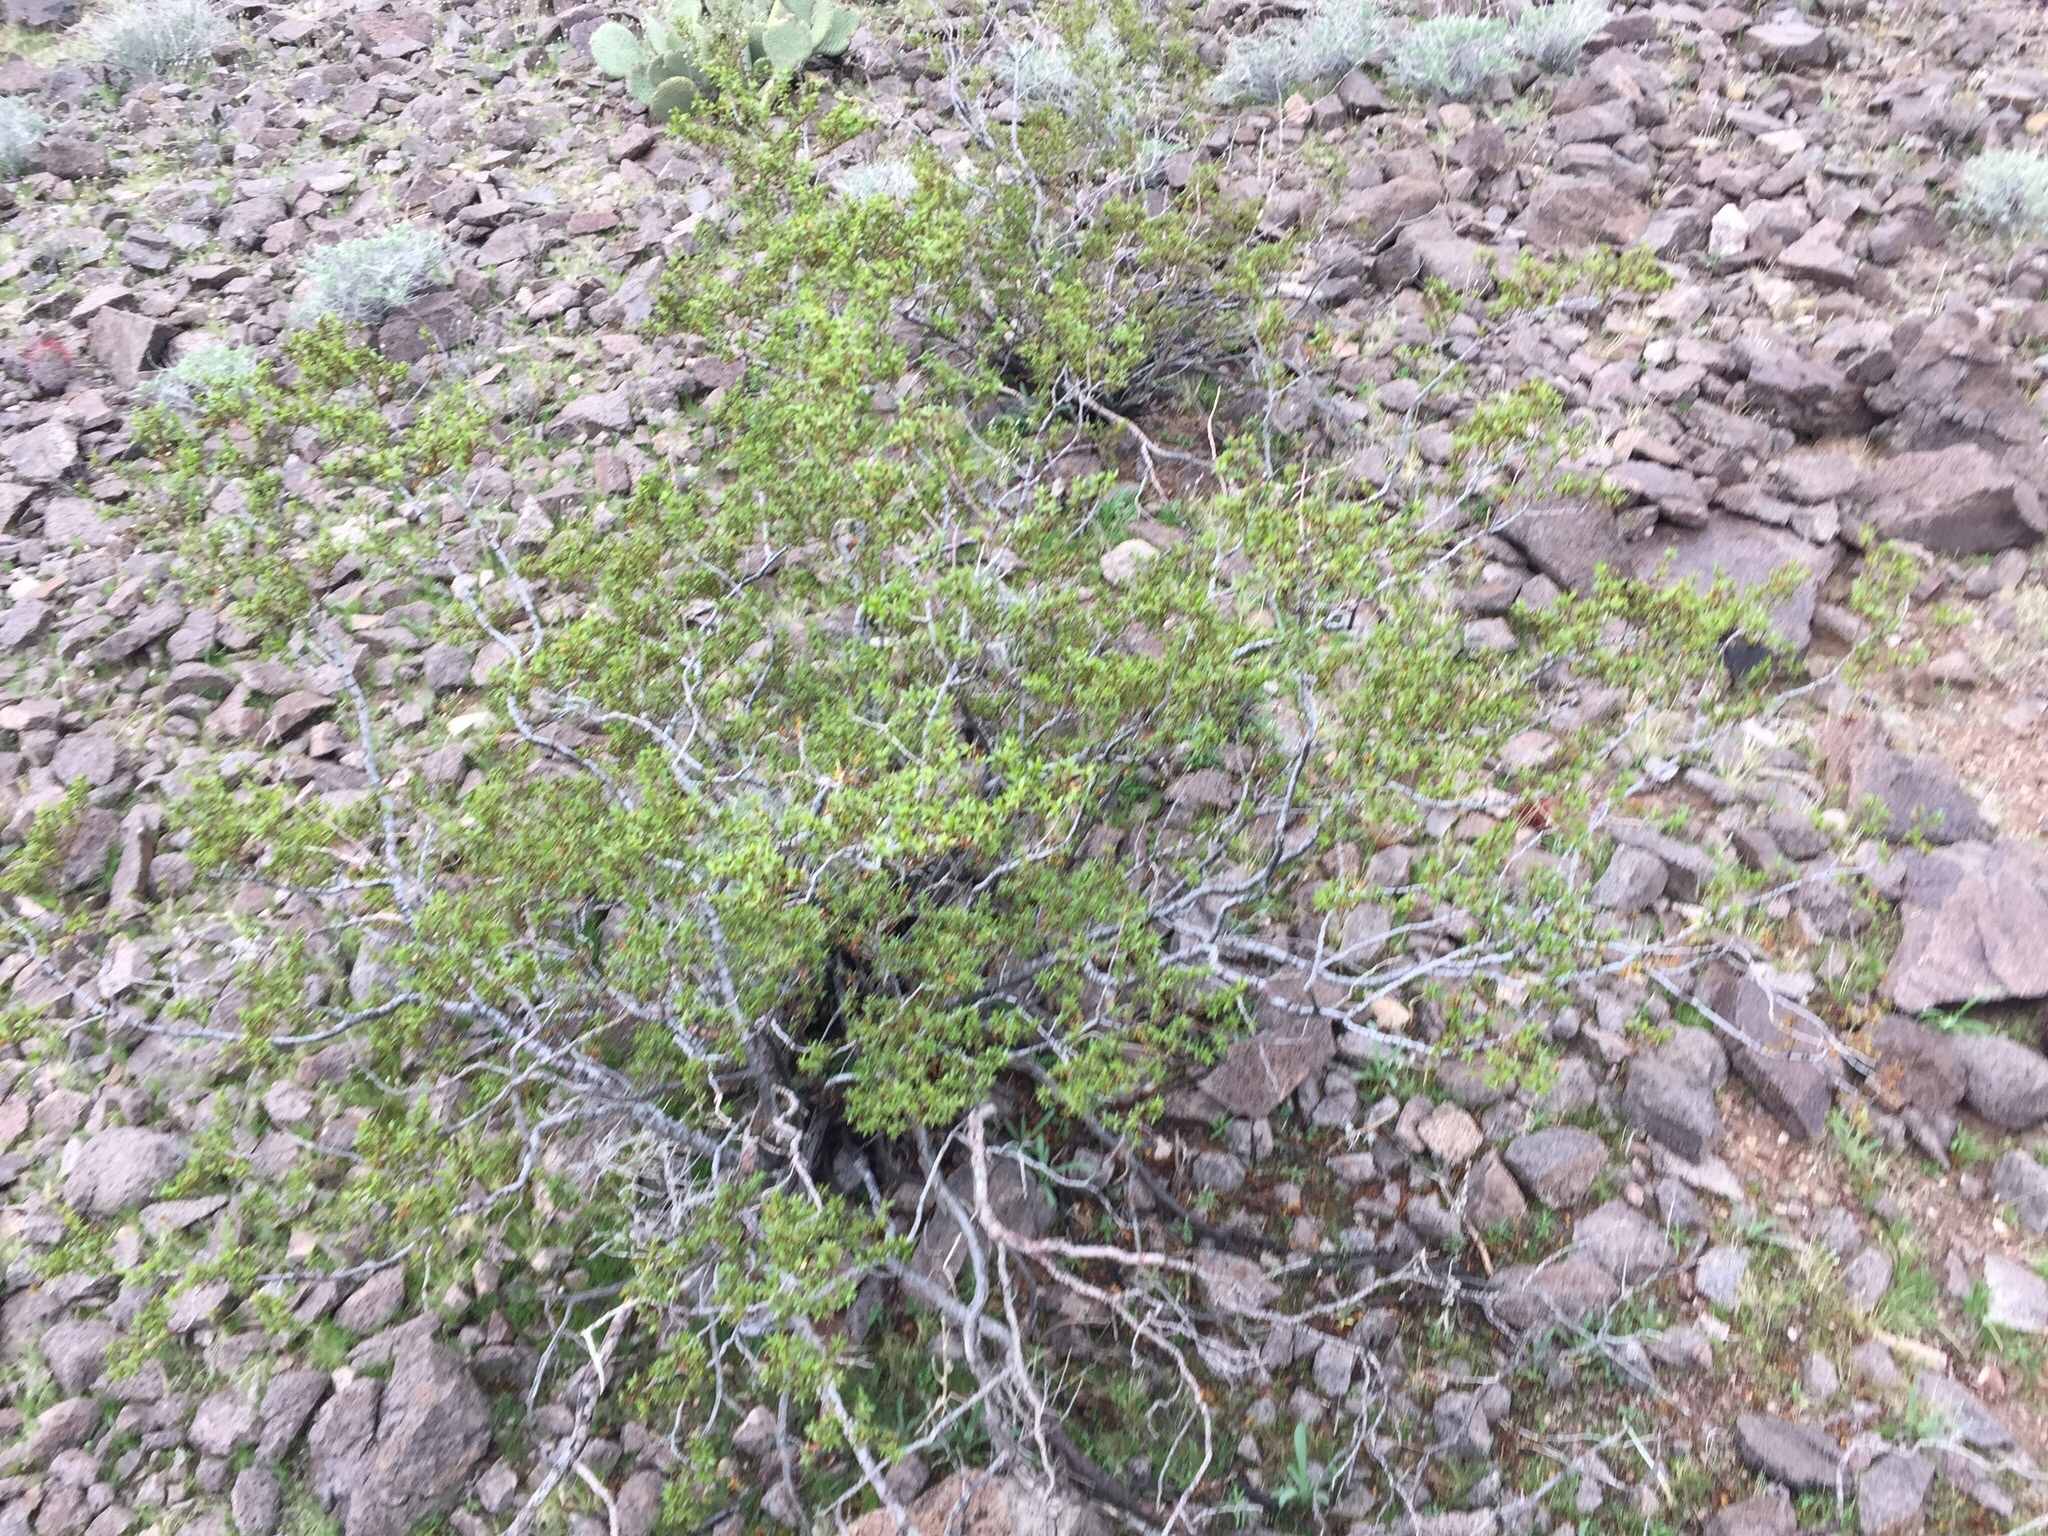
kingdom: Plantae
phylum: Tracheophyta
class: Magnoliopsida
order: Zygophyllales
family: Zygophyllaceae
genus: Larrea
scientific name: Larrea tridentata
